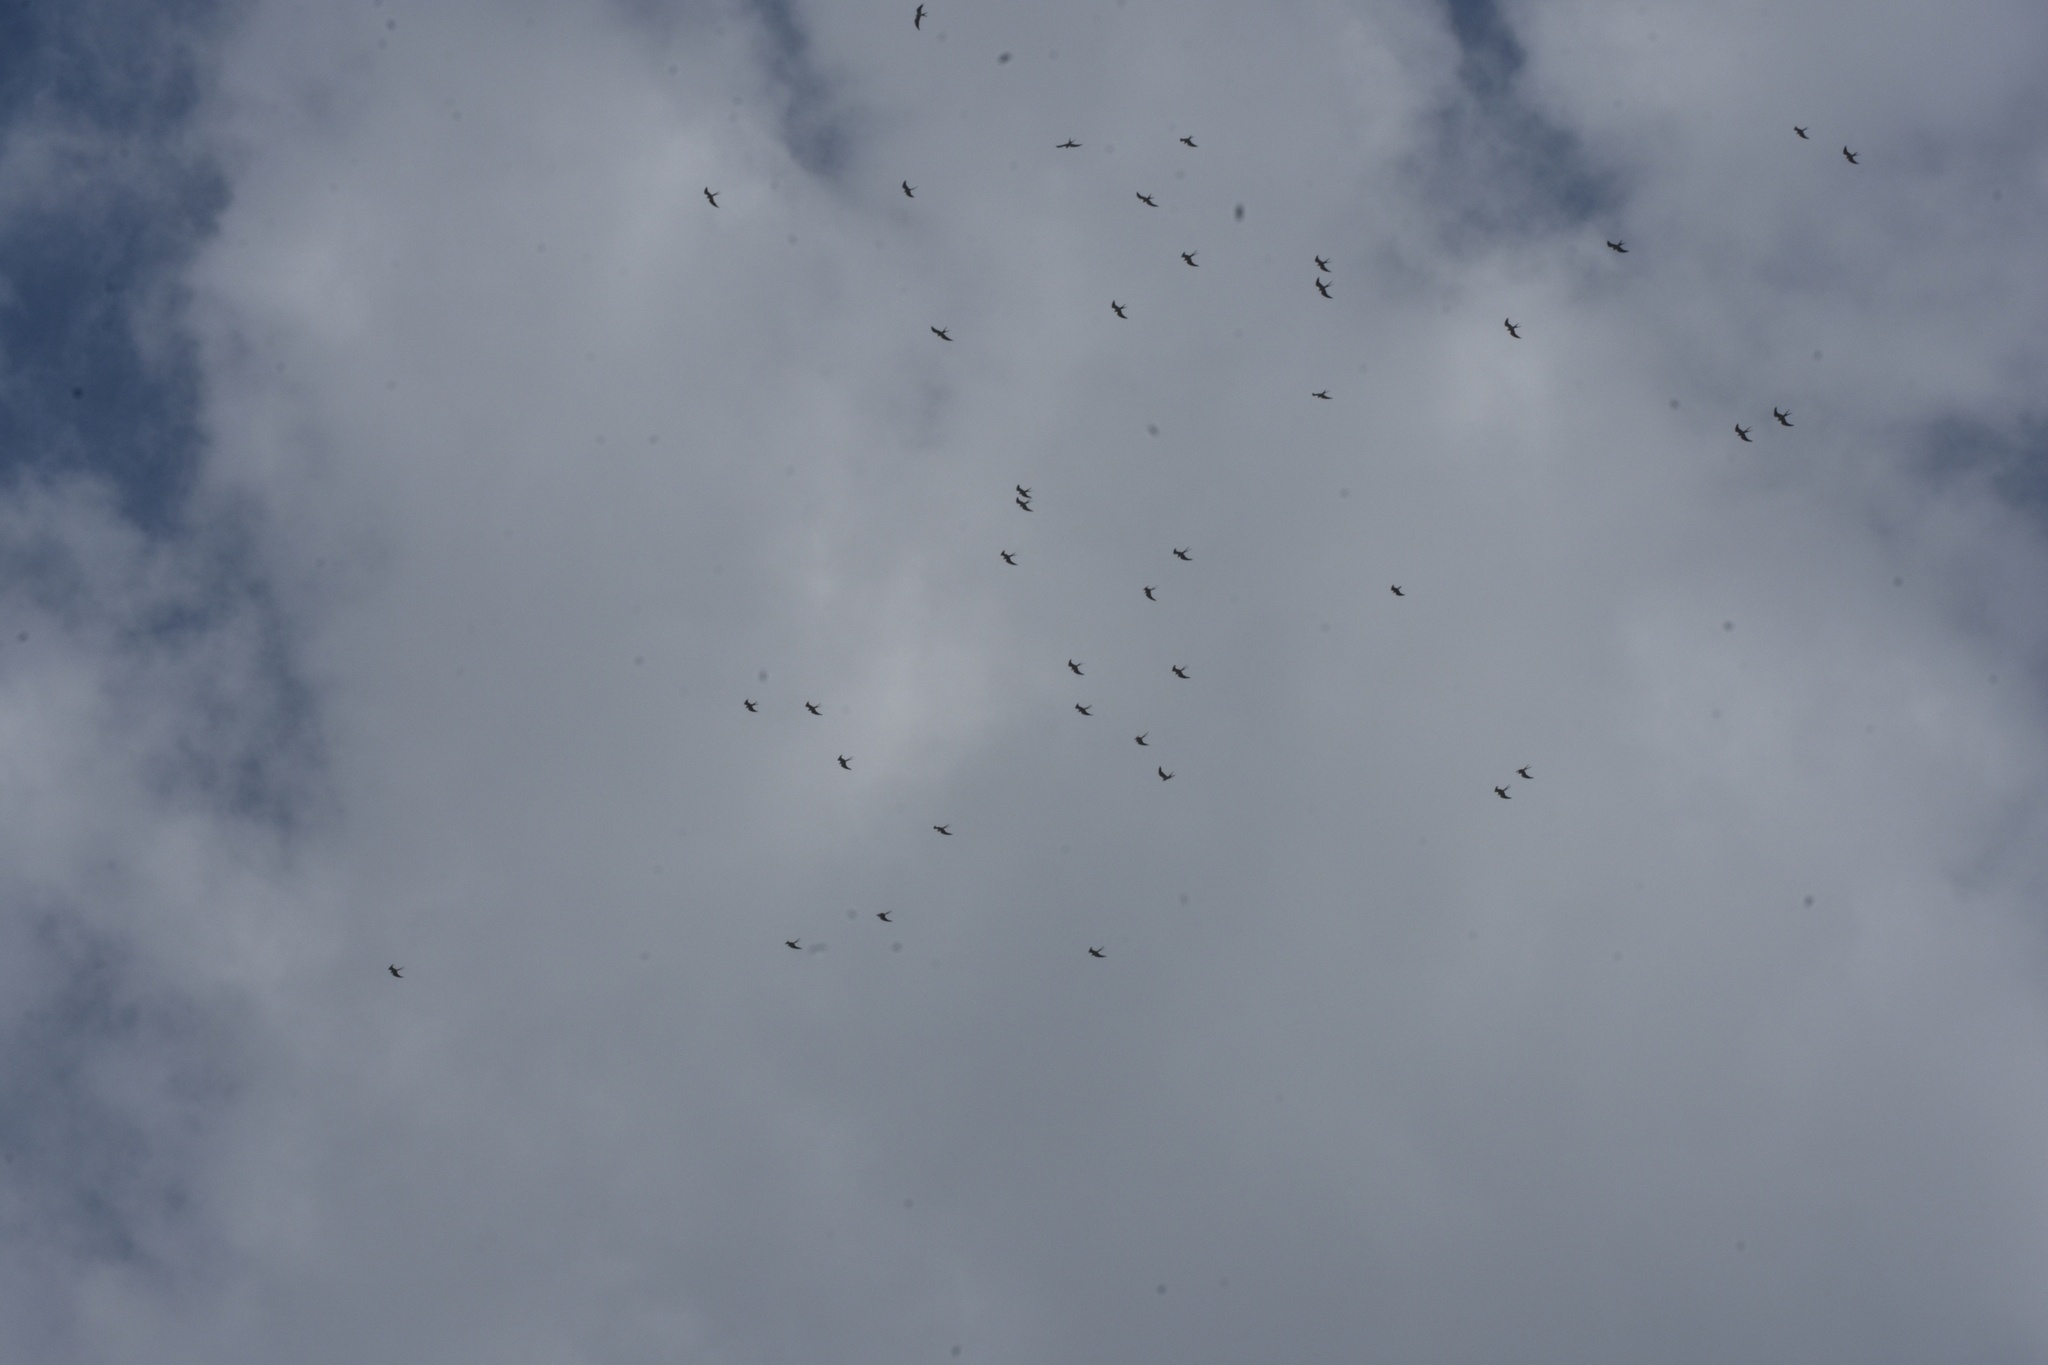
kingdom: Animalia
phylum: Chordata
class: Aves
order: Accipitriformes
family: Accipitridae
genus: Elanoides
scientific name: Elanoides forficatus
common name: Swallow-tailed kite
